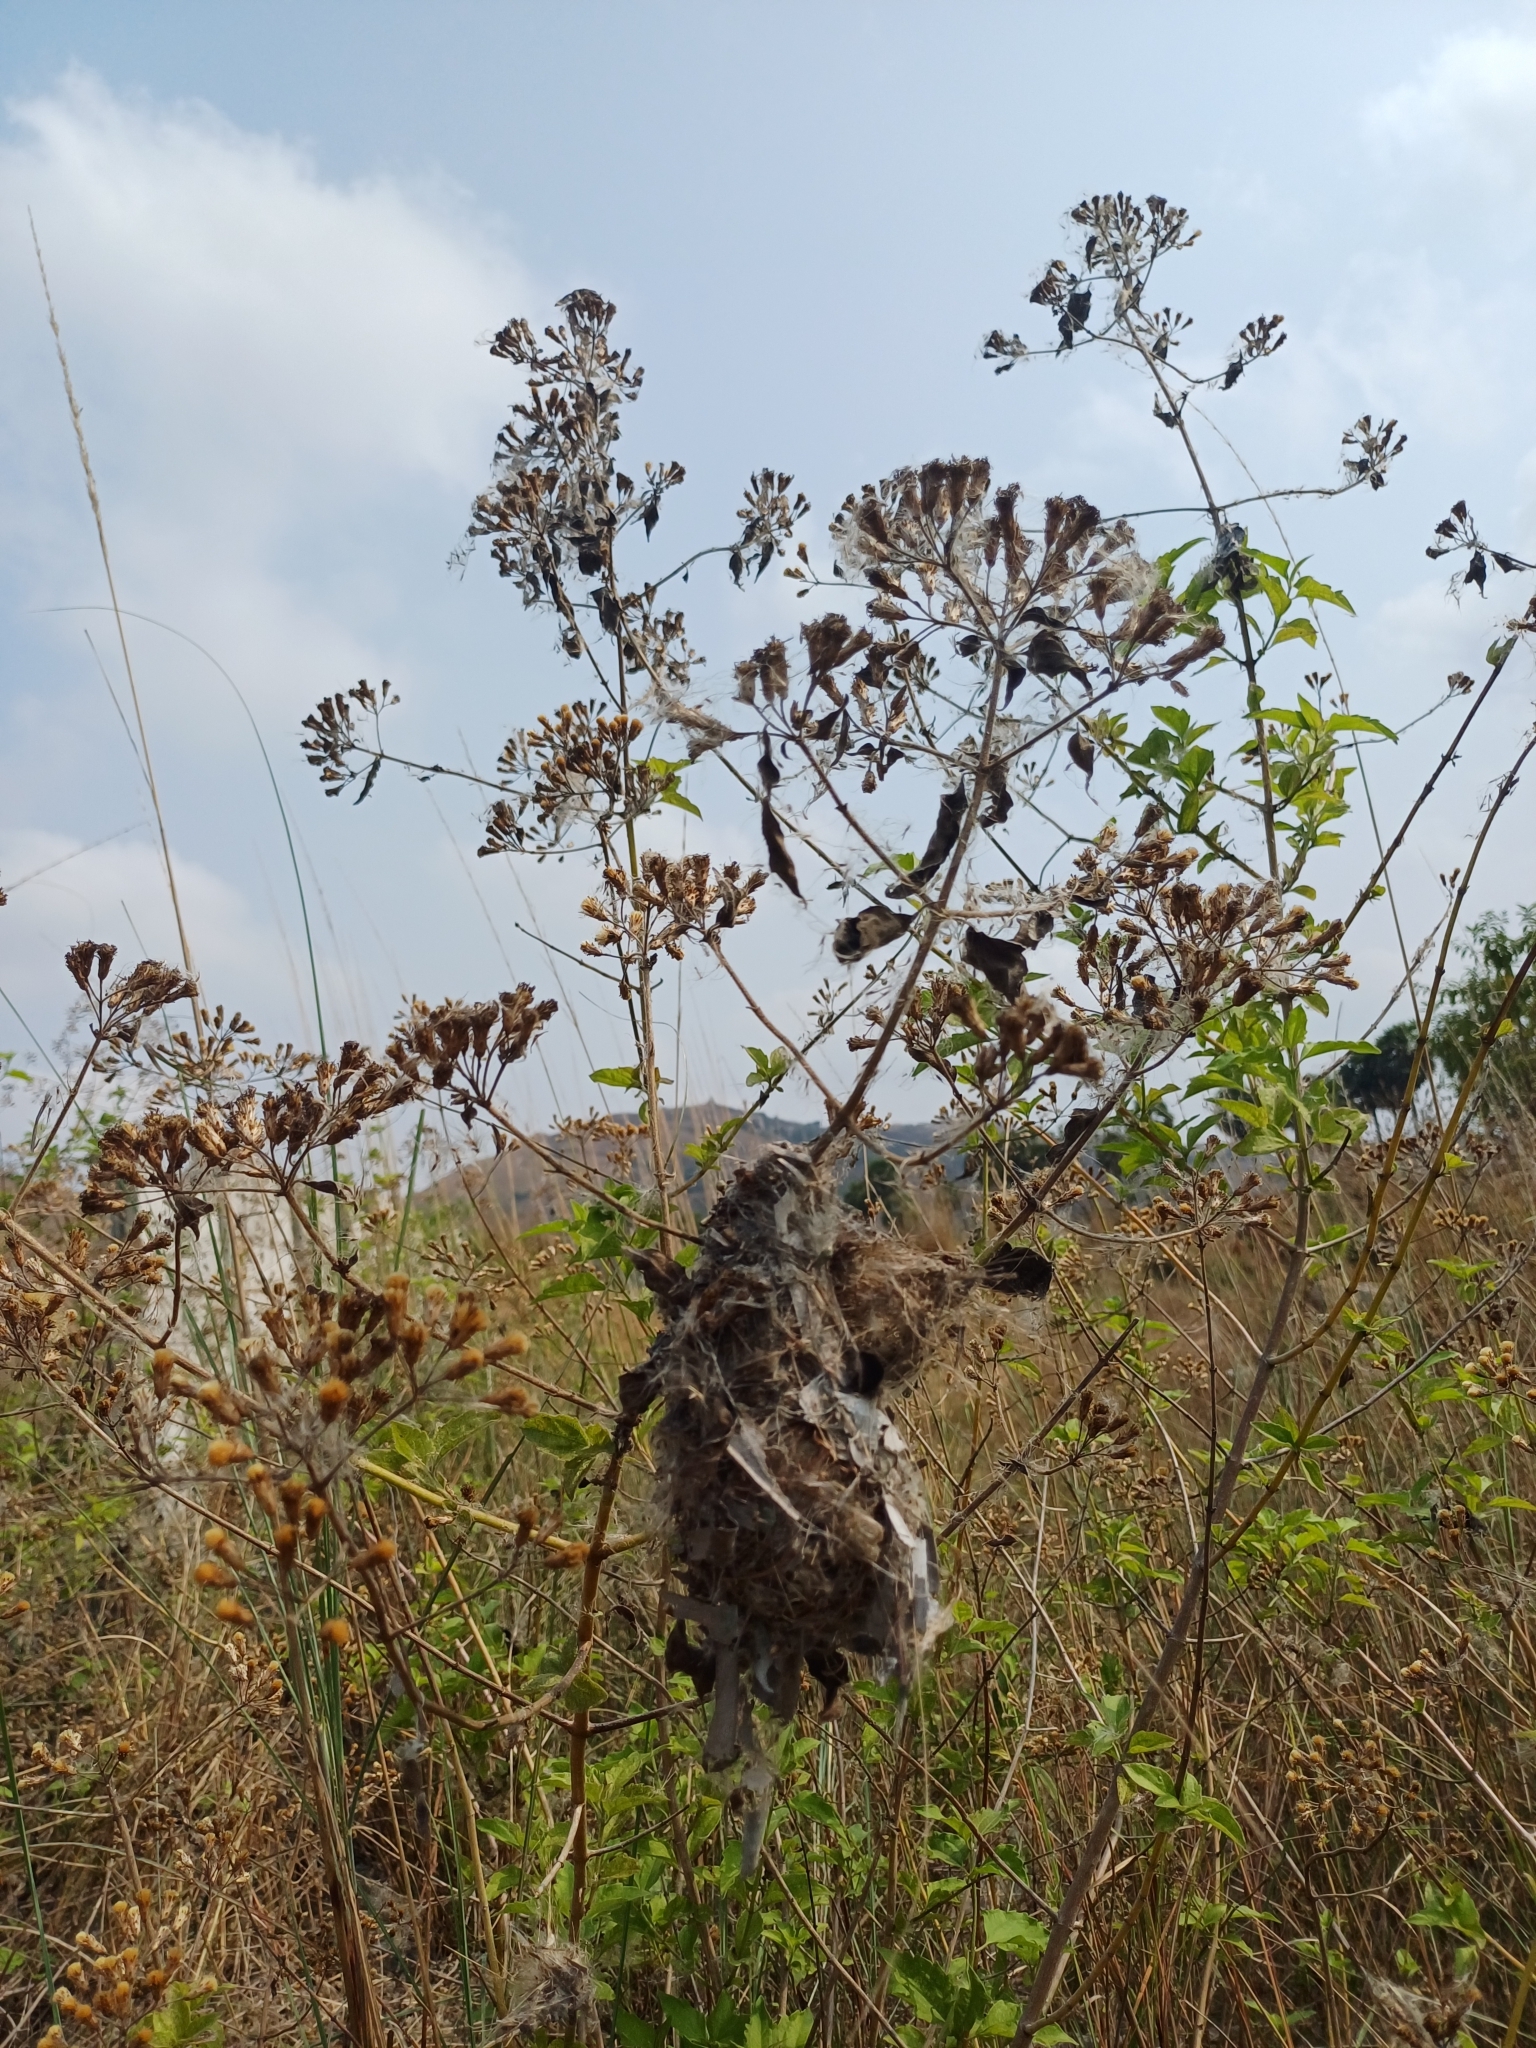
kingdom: Animalia
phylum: Chordata
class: Aves
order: Passeriformes
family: Nectariniidae
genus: Cinnyris
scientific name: Cinnyris asiaticus
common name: Purple sunbird
